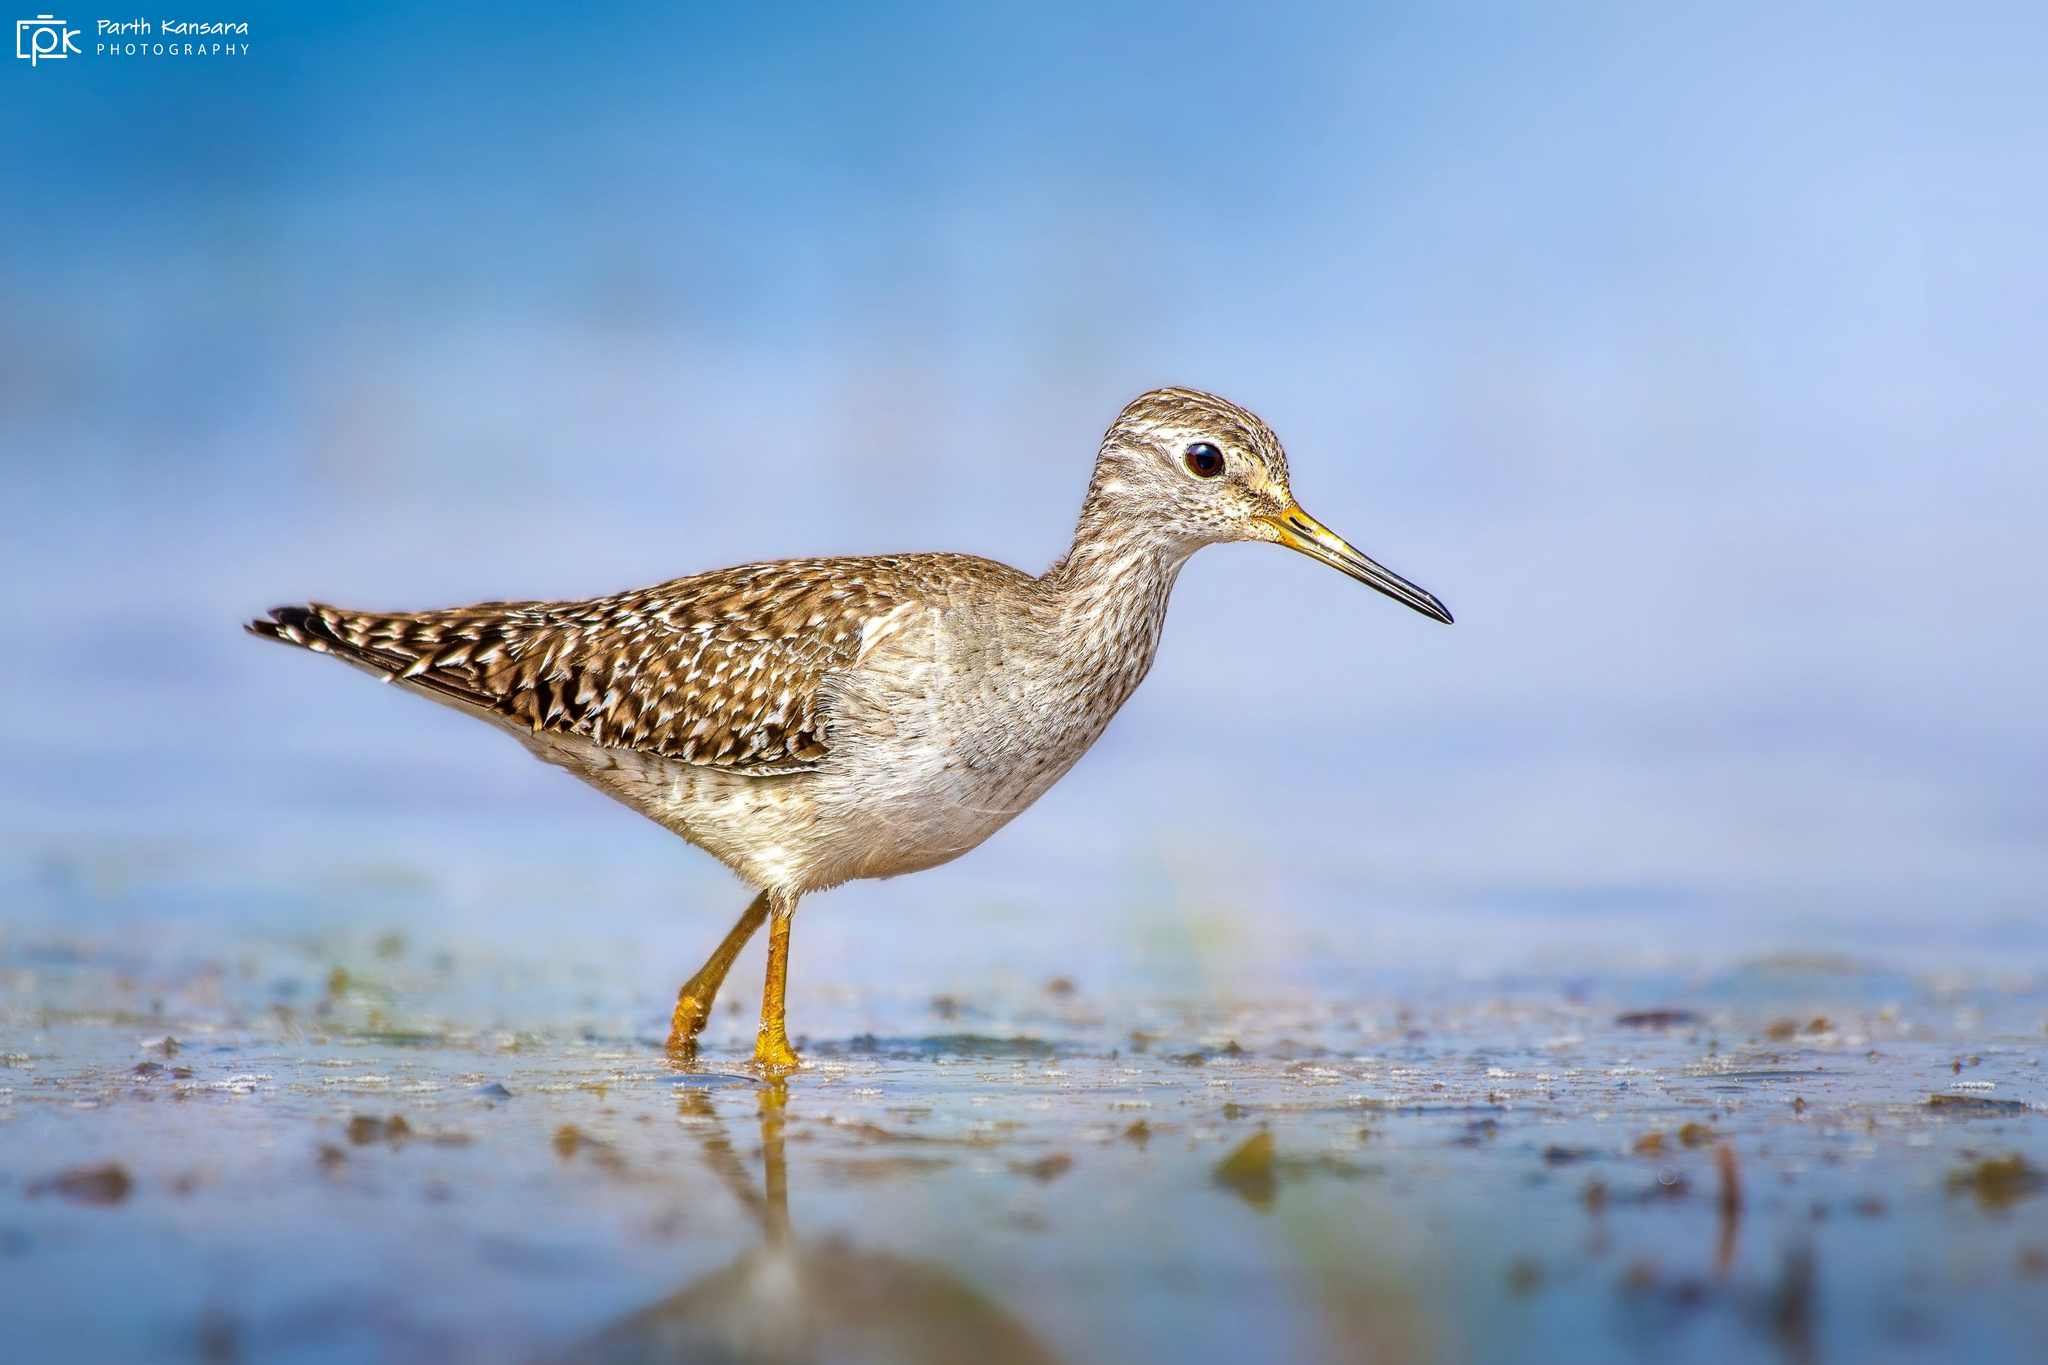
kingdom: Animalia
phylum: Chordata
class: Aves
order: Charadriiformes
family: Scolopacidae
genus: Tringa
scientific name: Tringa glareola
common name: Wood sandpiper
